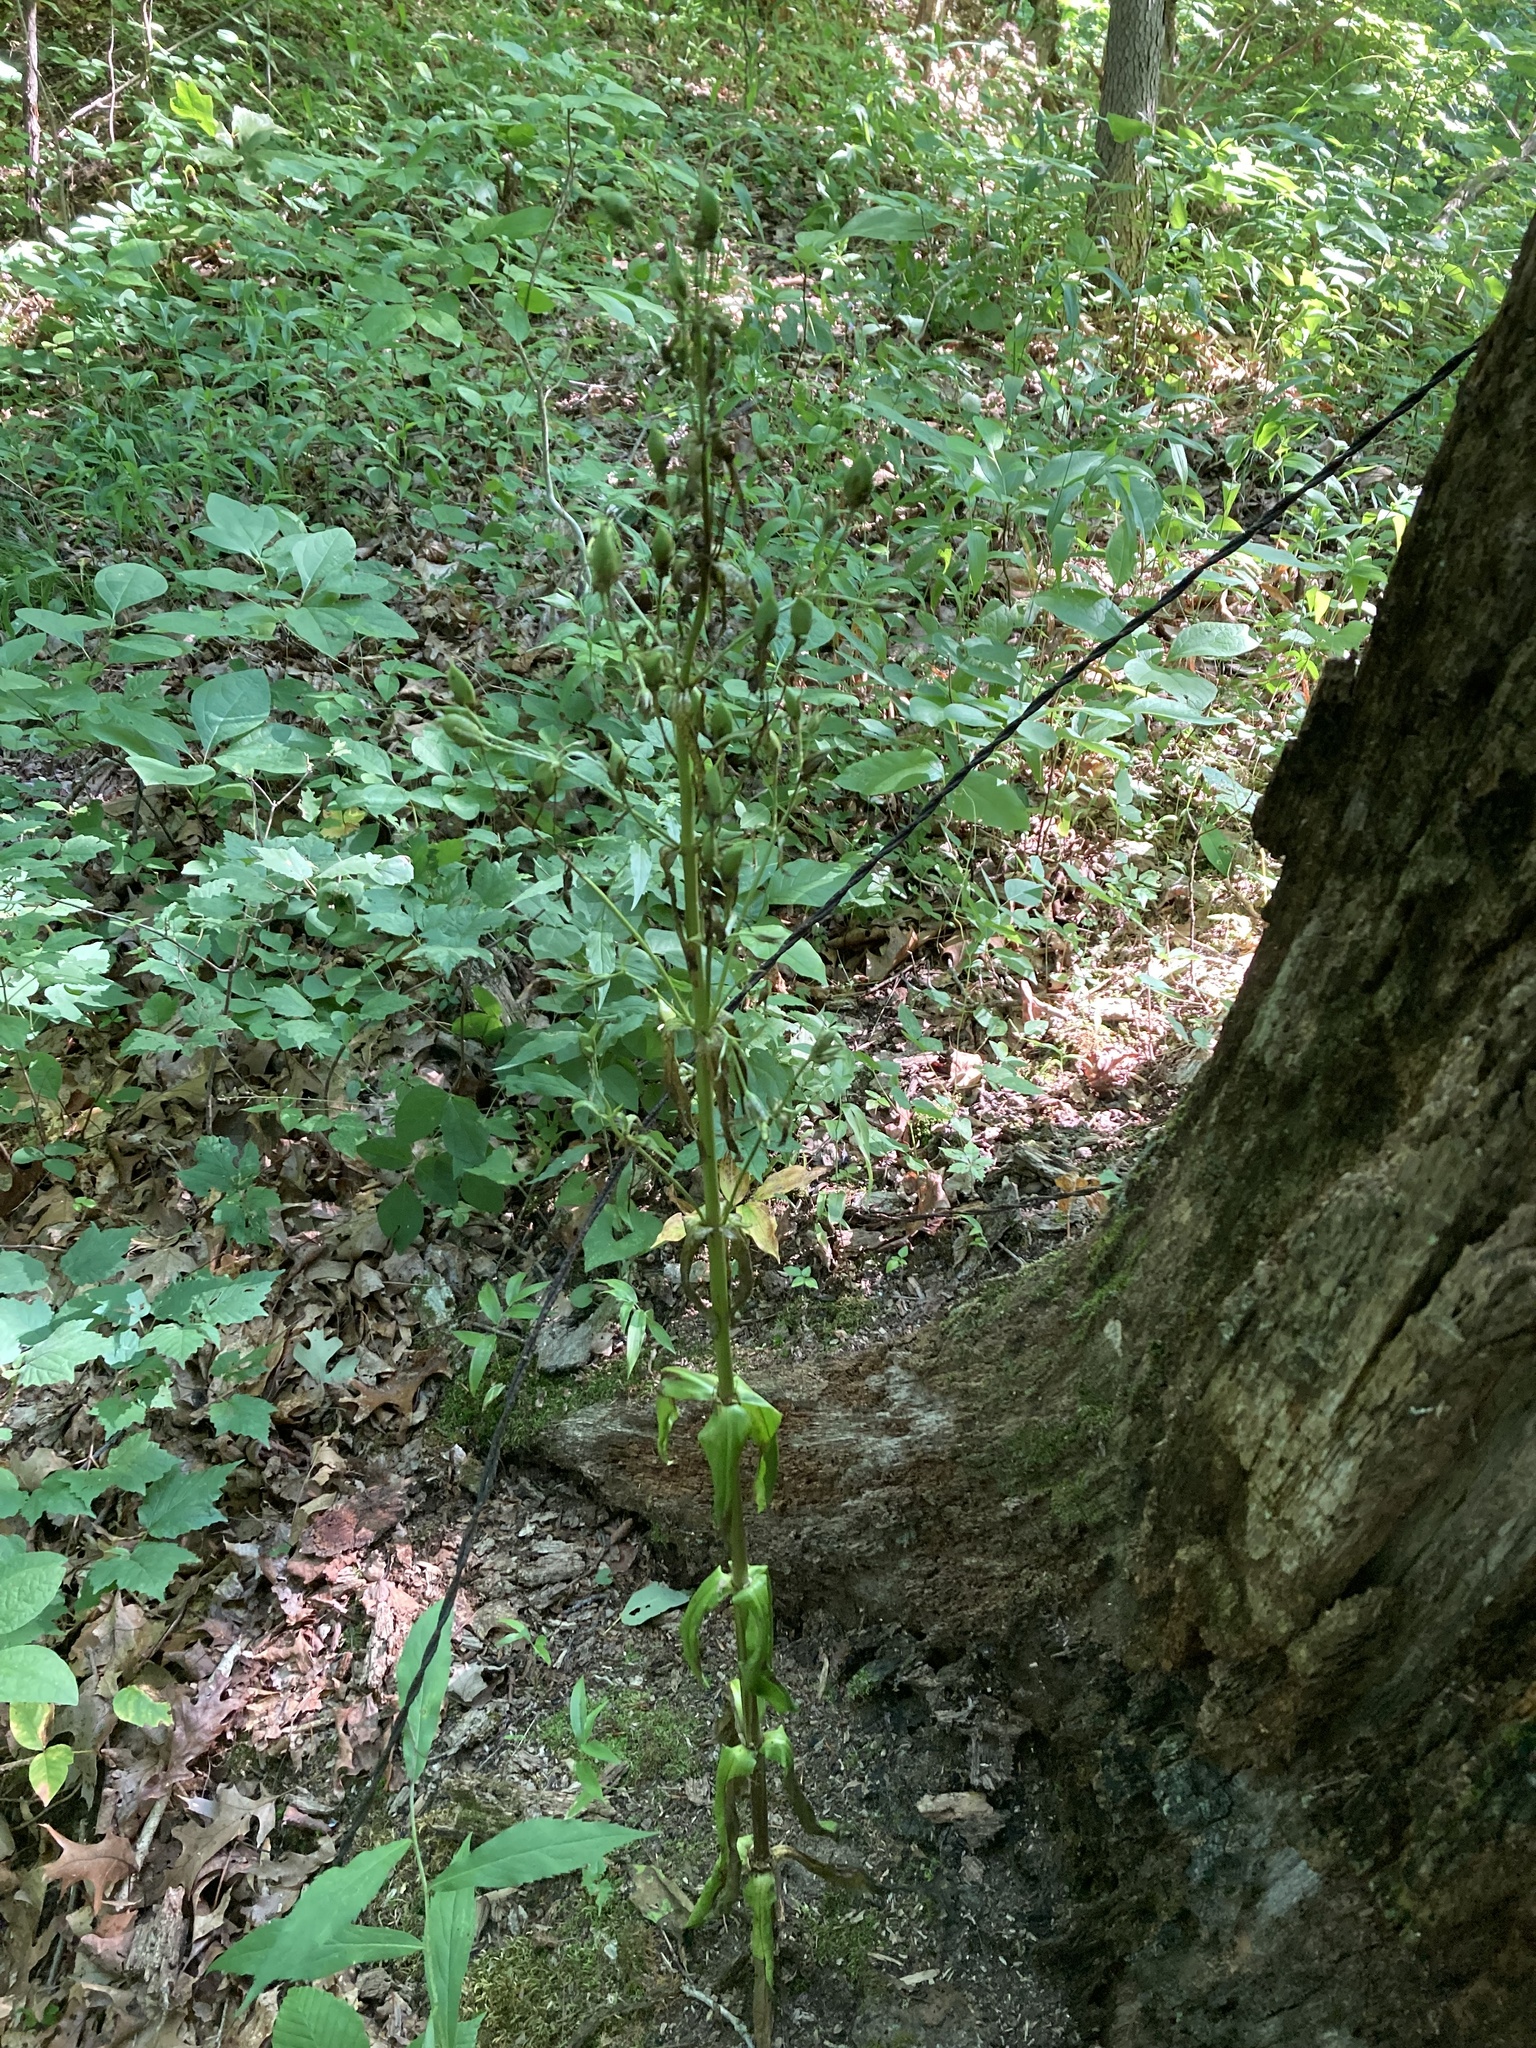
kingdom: Plantae
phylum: Tracheophyta
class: Magnoliopsida
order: Gentianales
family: Gentianaceae
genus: Frasera
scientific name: Frasera caroliniensis
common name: American columbo
